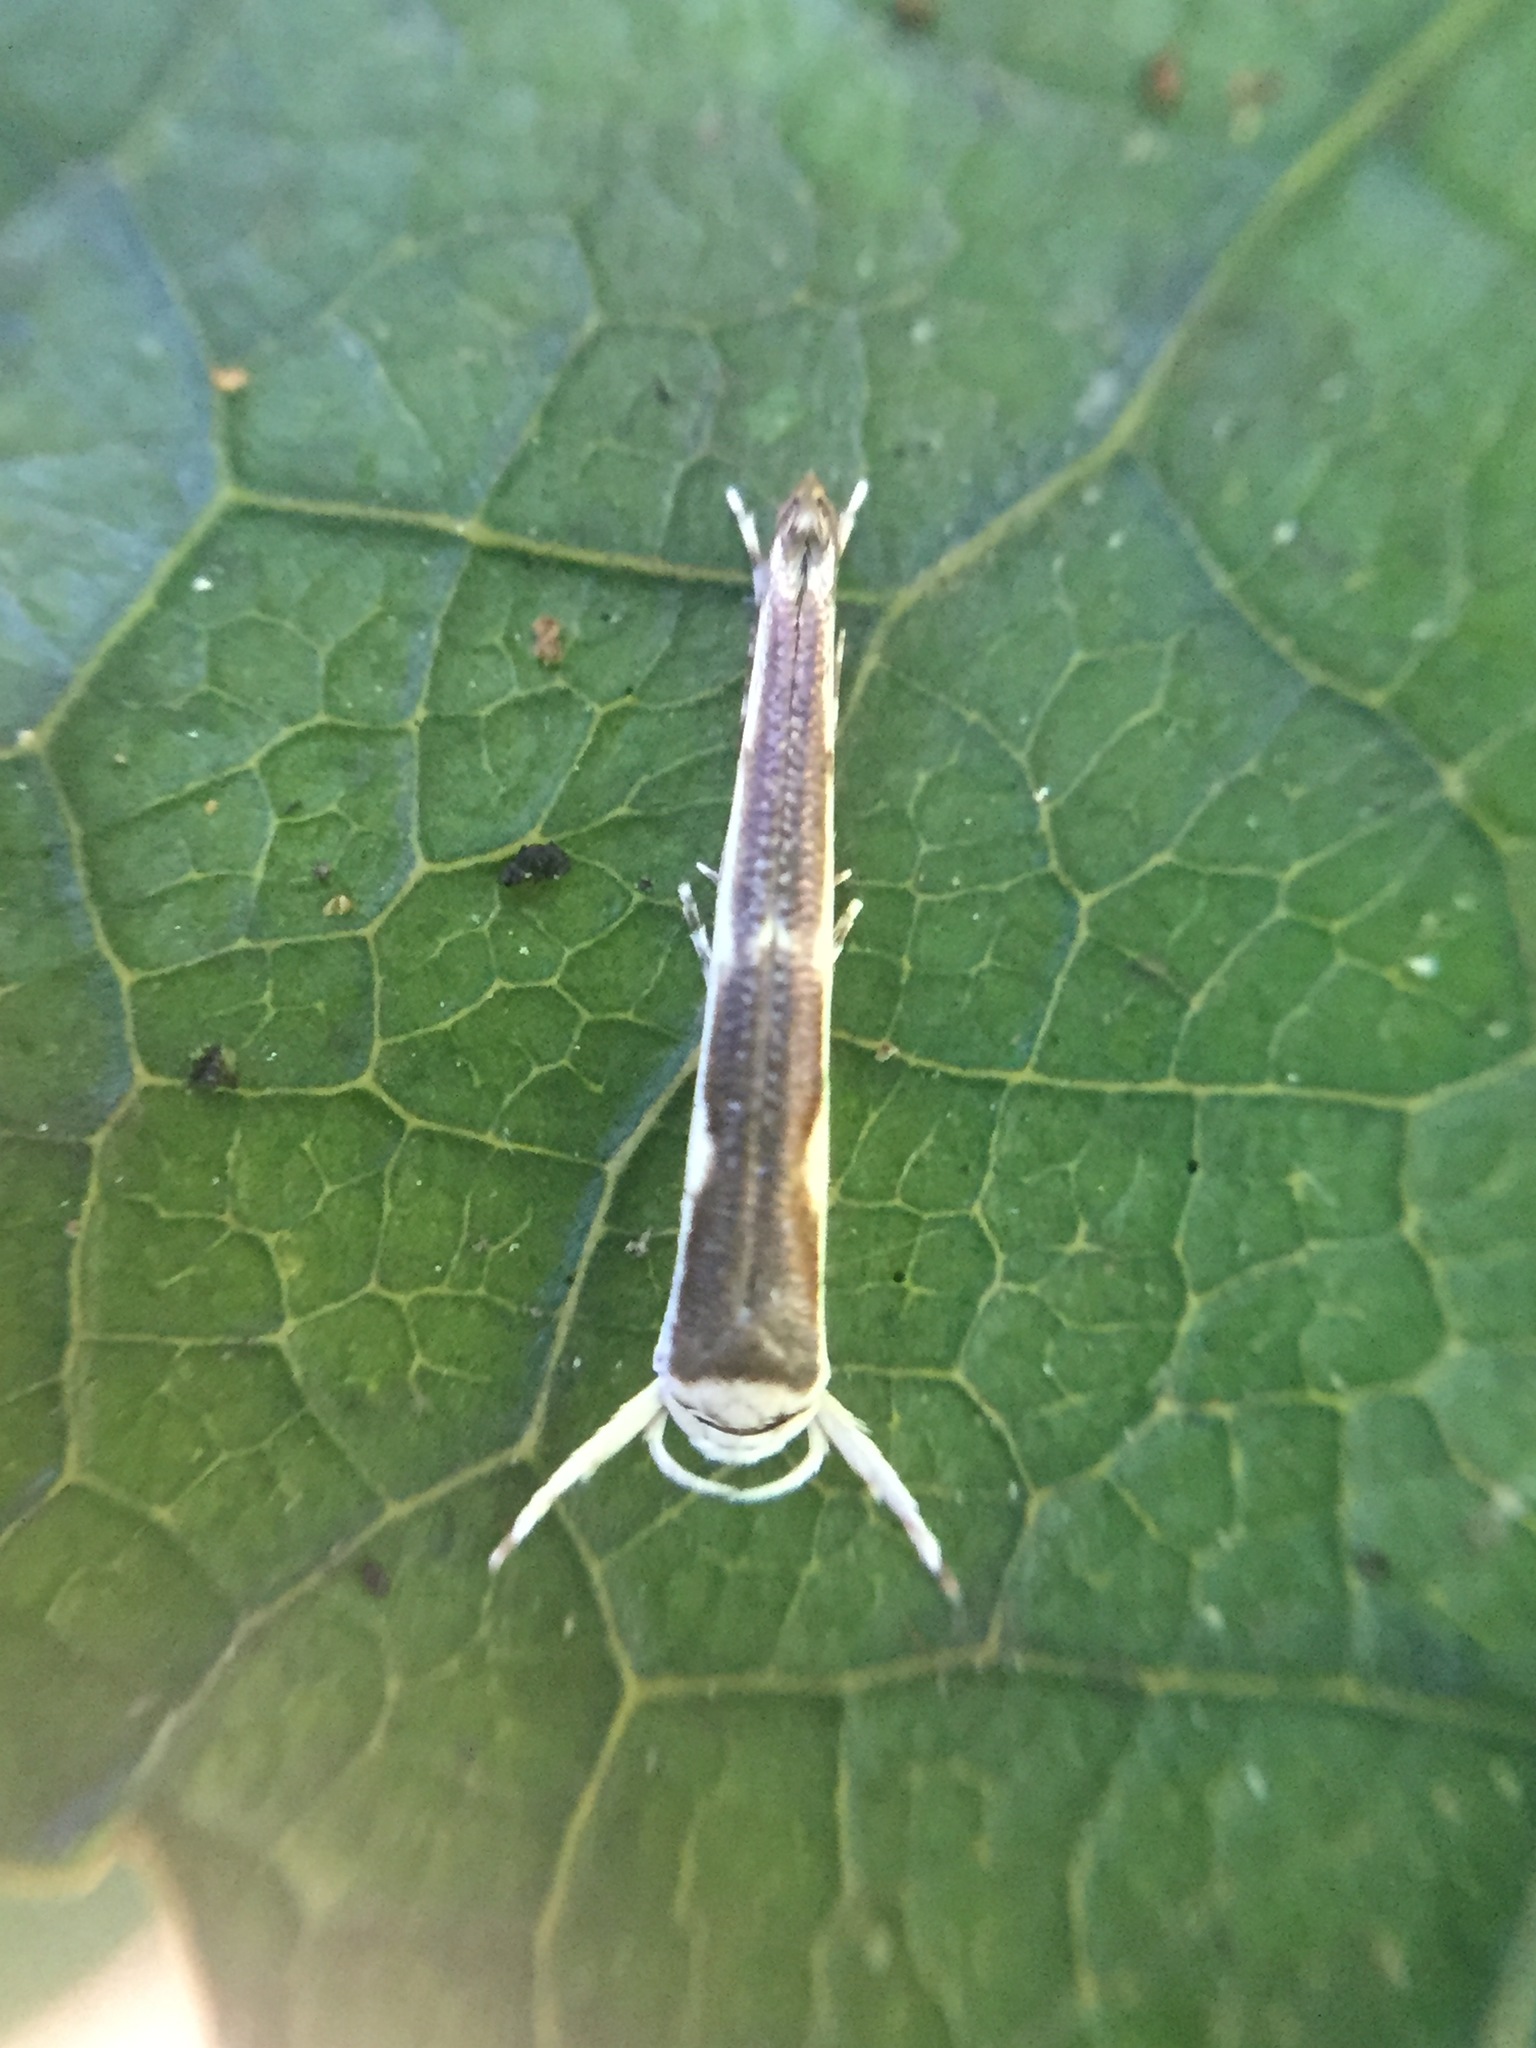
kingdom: Animalia
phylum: Arthropoda
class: Insecta
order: Lepidoptera
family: Roeslerstammiidae
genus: Vanicela
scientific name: Vanicela disjunctella
